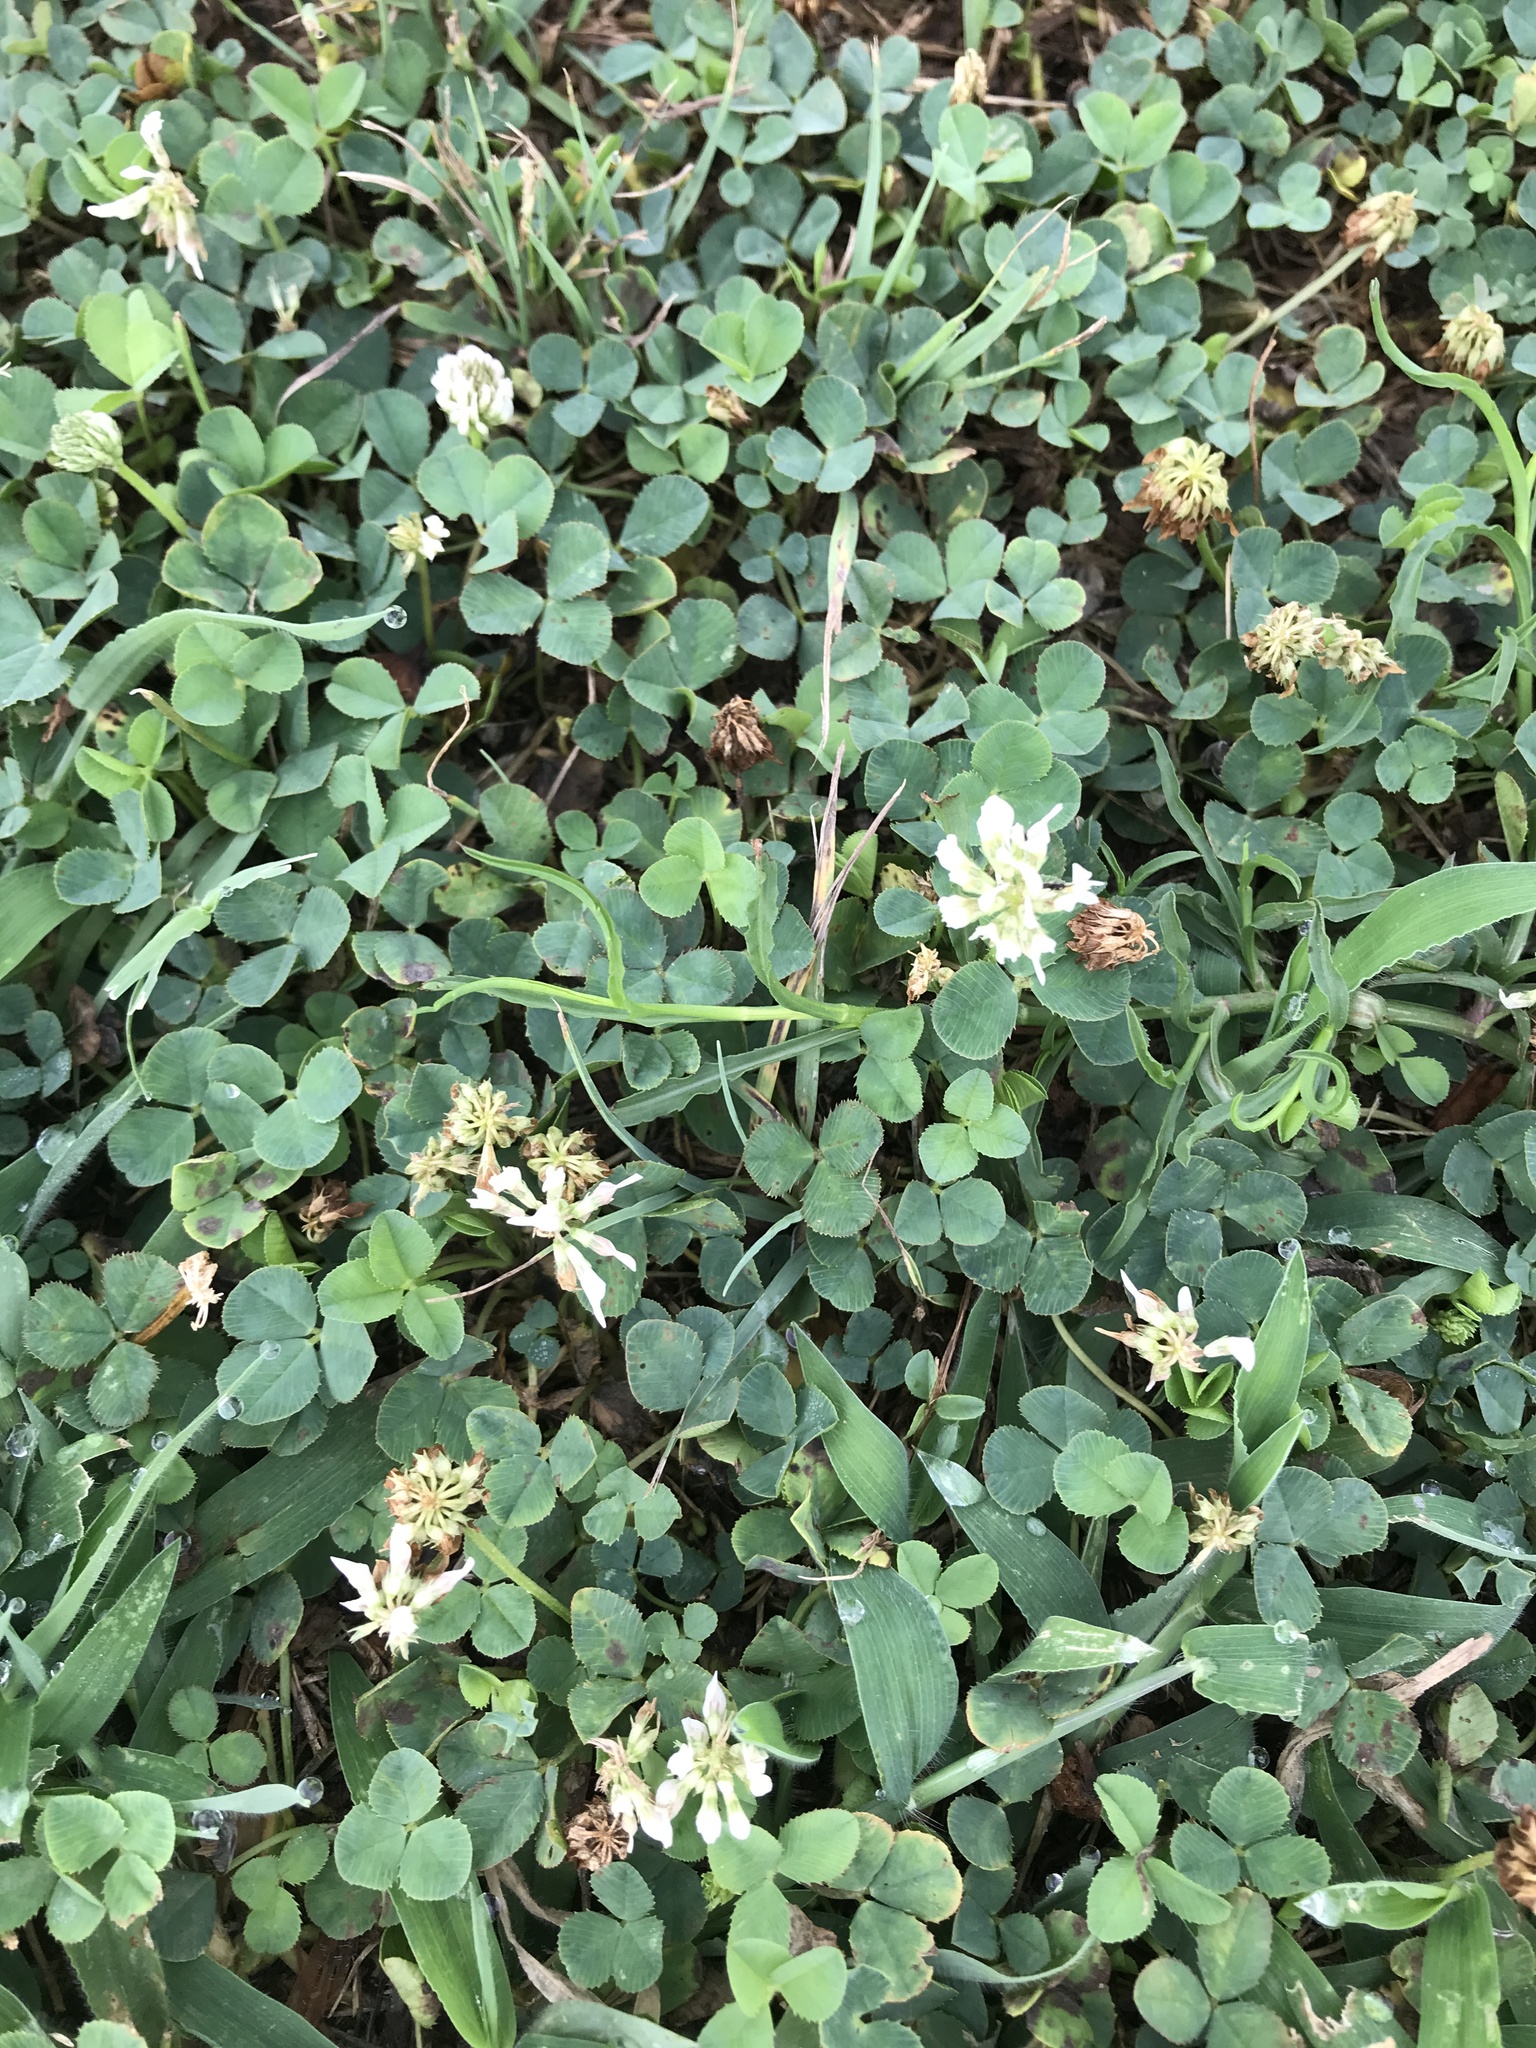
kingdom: Plantae
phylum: Tracheophyta
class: Magnoliopsida
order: Fabales
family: Fabaceae
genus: Trifolium
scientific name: Trifolium repens
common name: White clover
